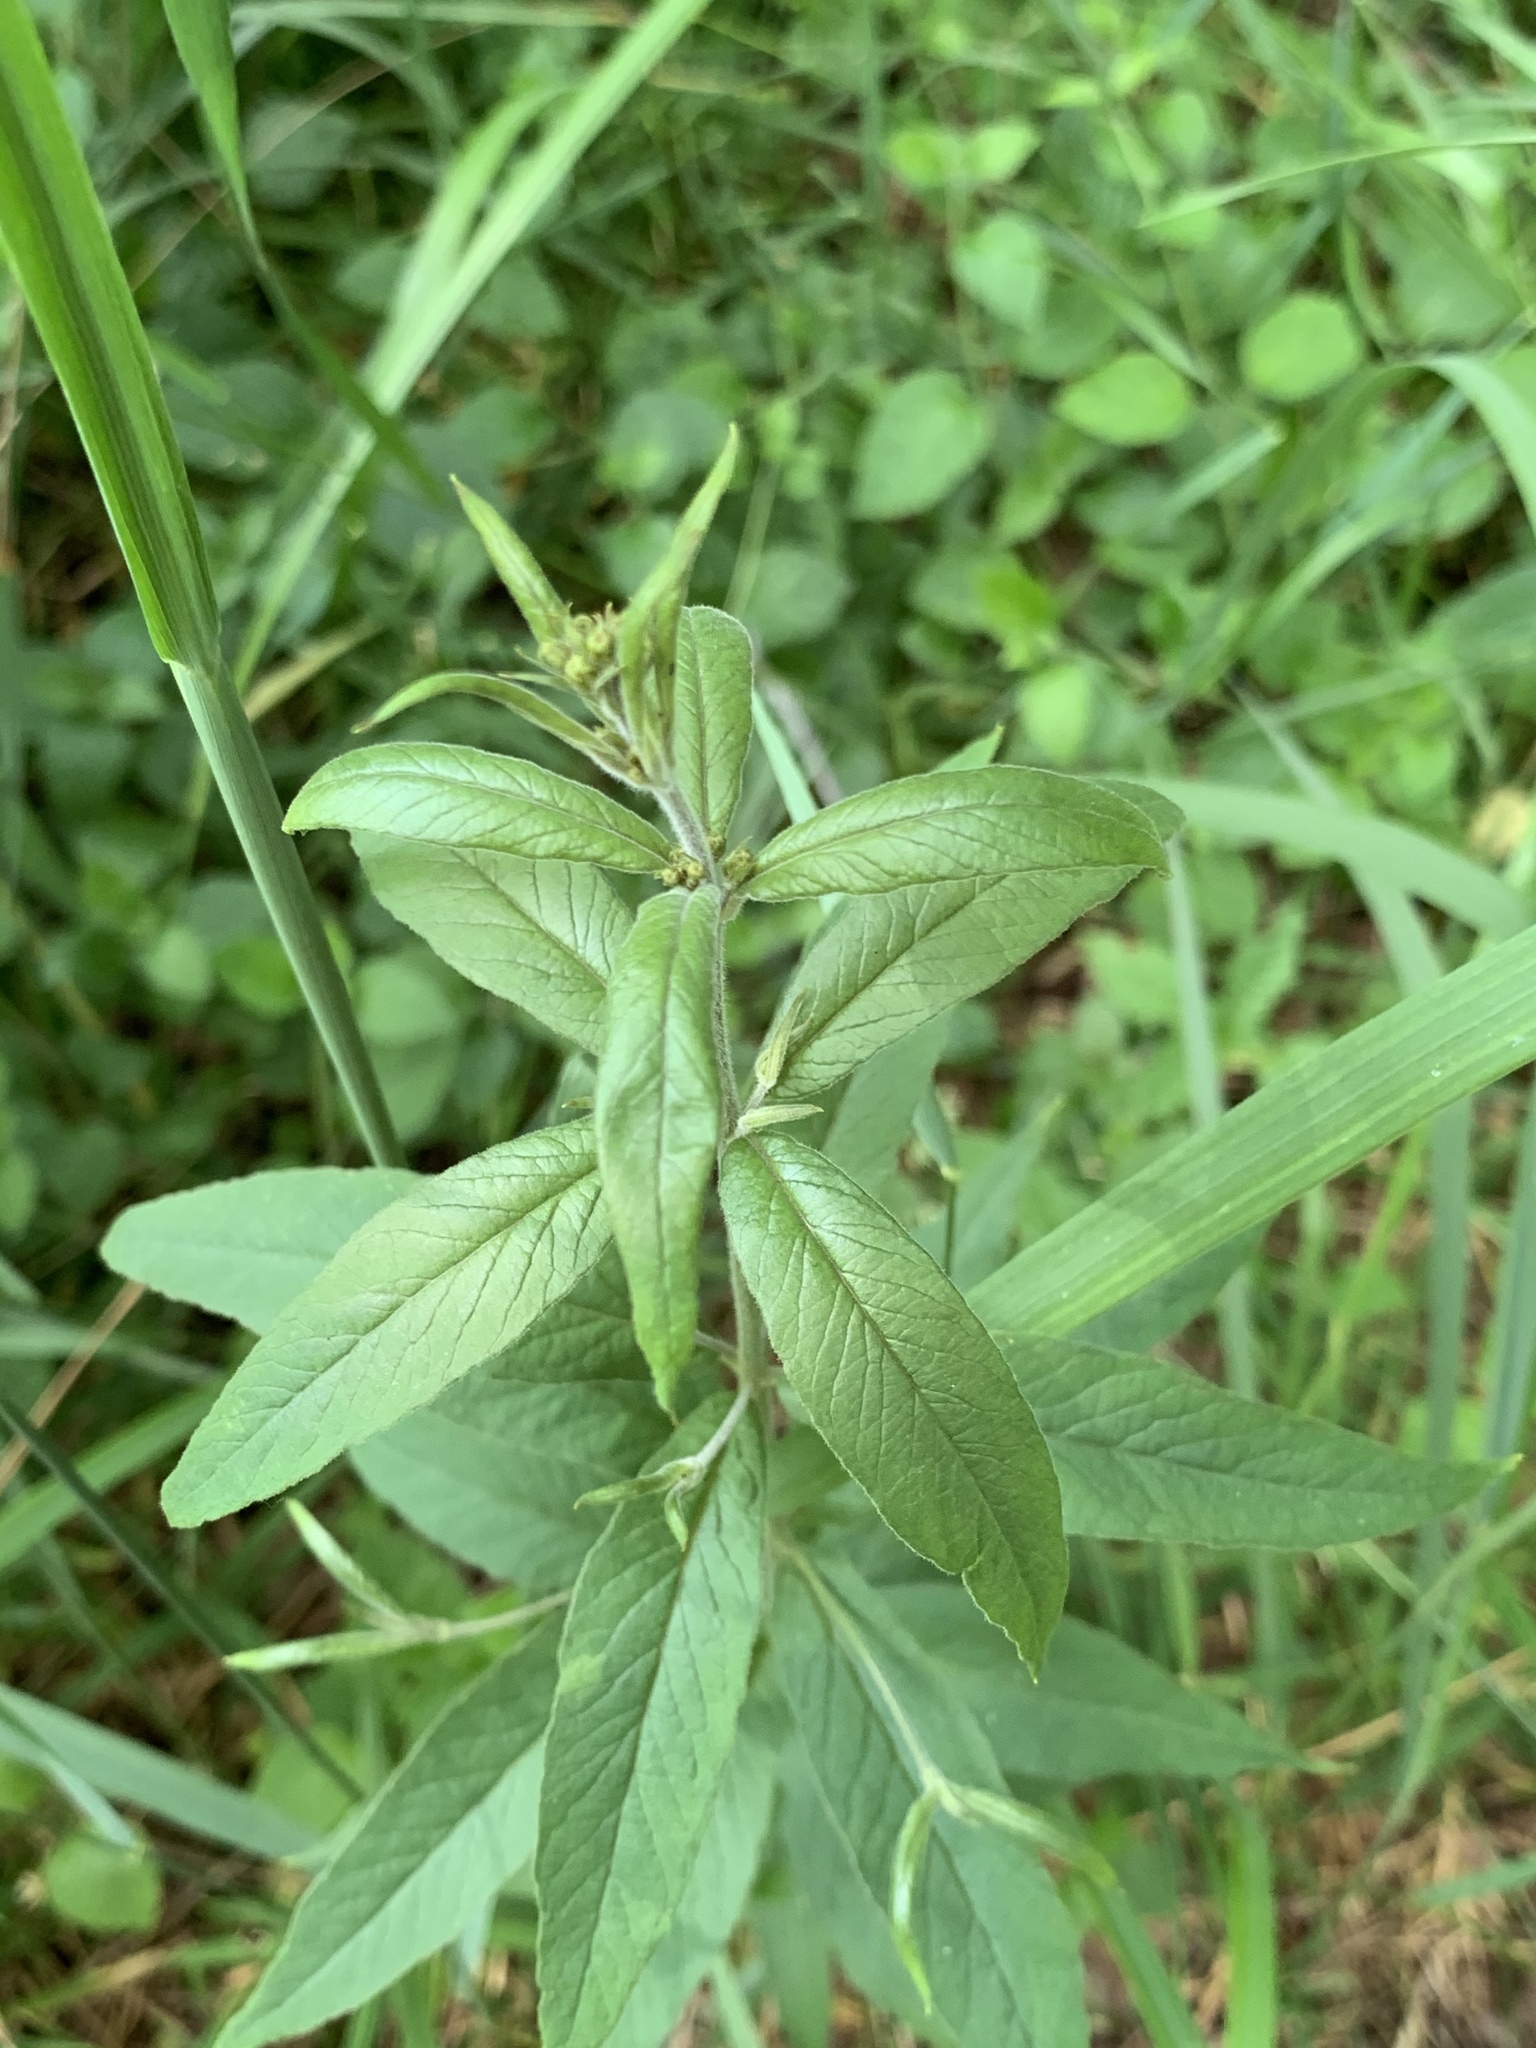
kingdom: Plantae
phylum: Tracheophyta
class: Magnoliopsida
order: Ericales
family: Primulaceae
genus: Lysimachia
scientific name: Lysimachia vulgaris
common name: Yellow loosestrife
